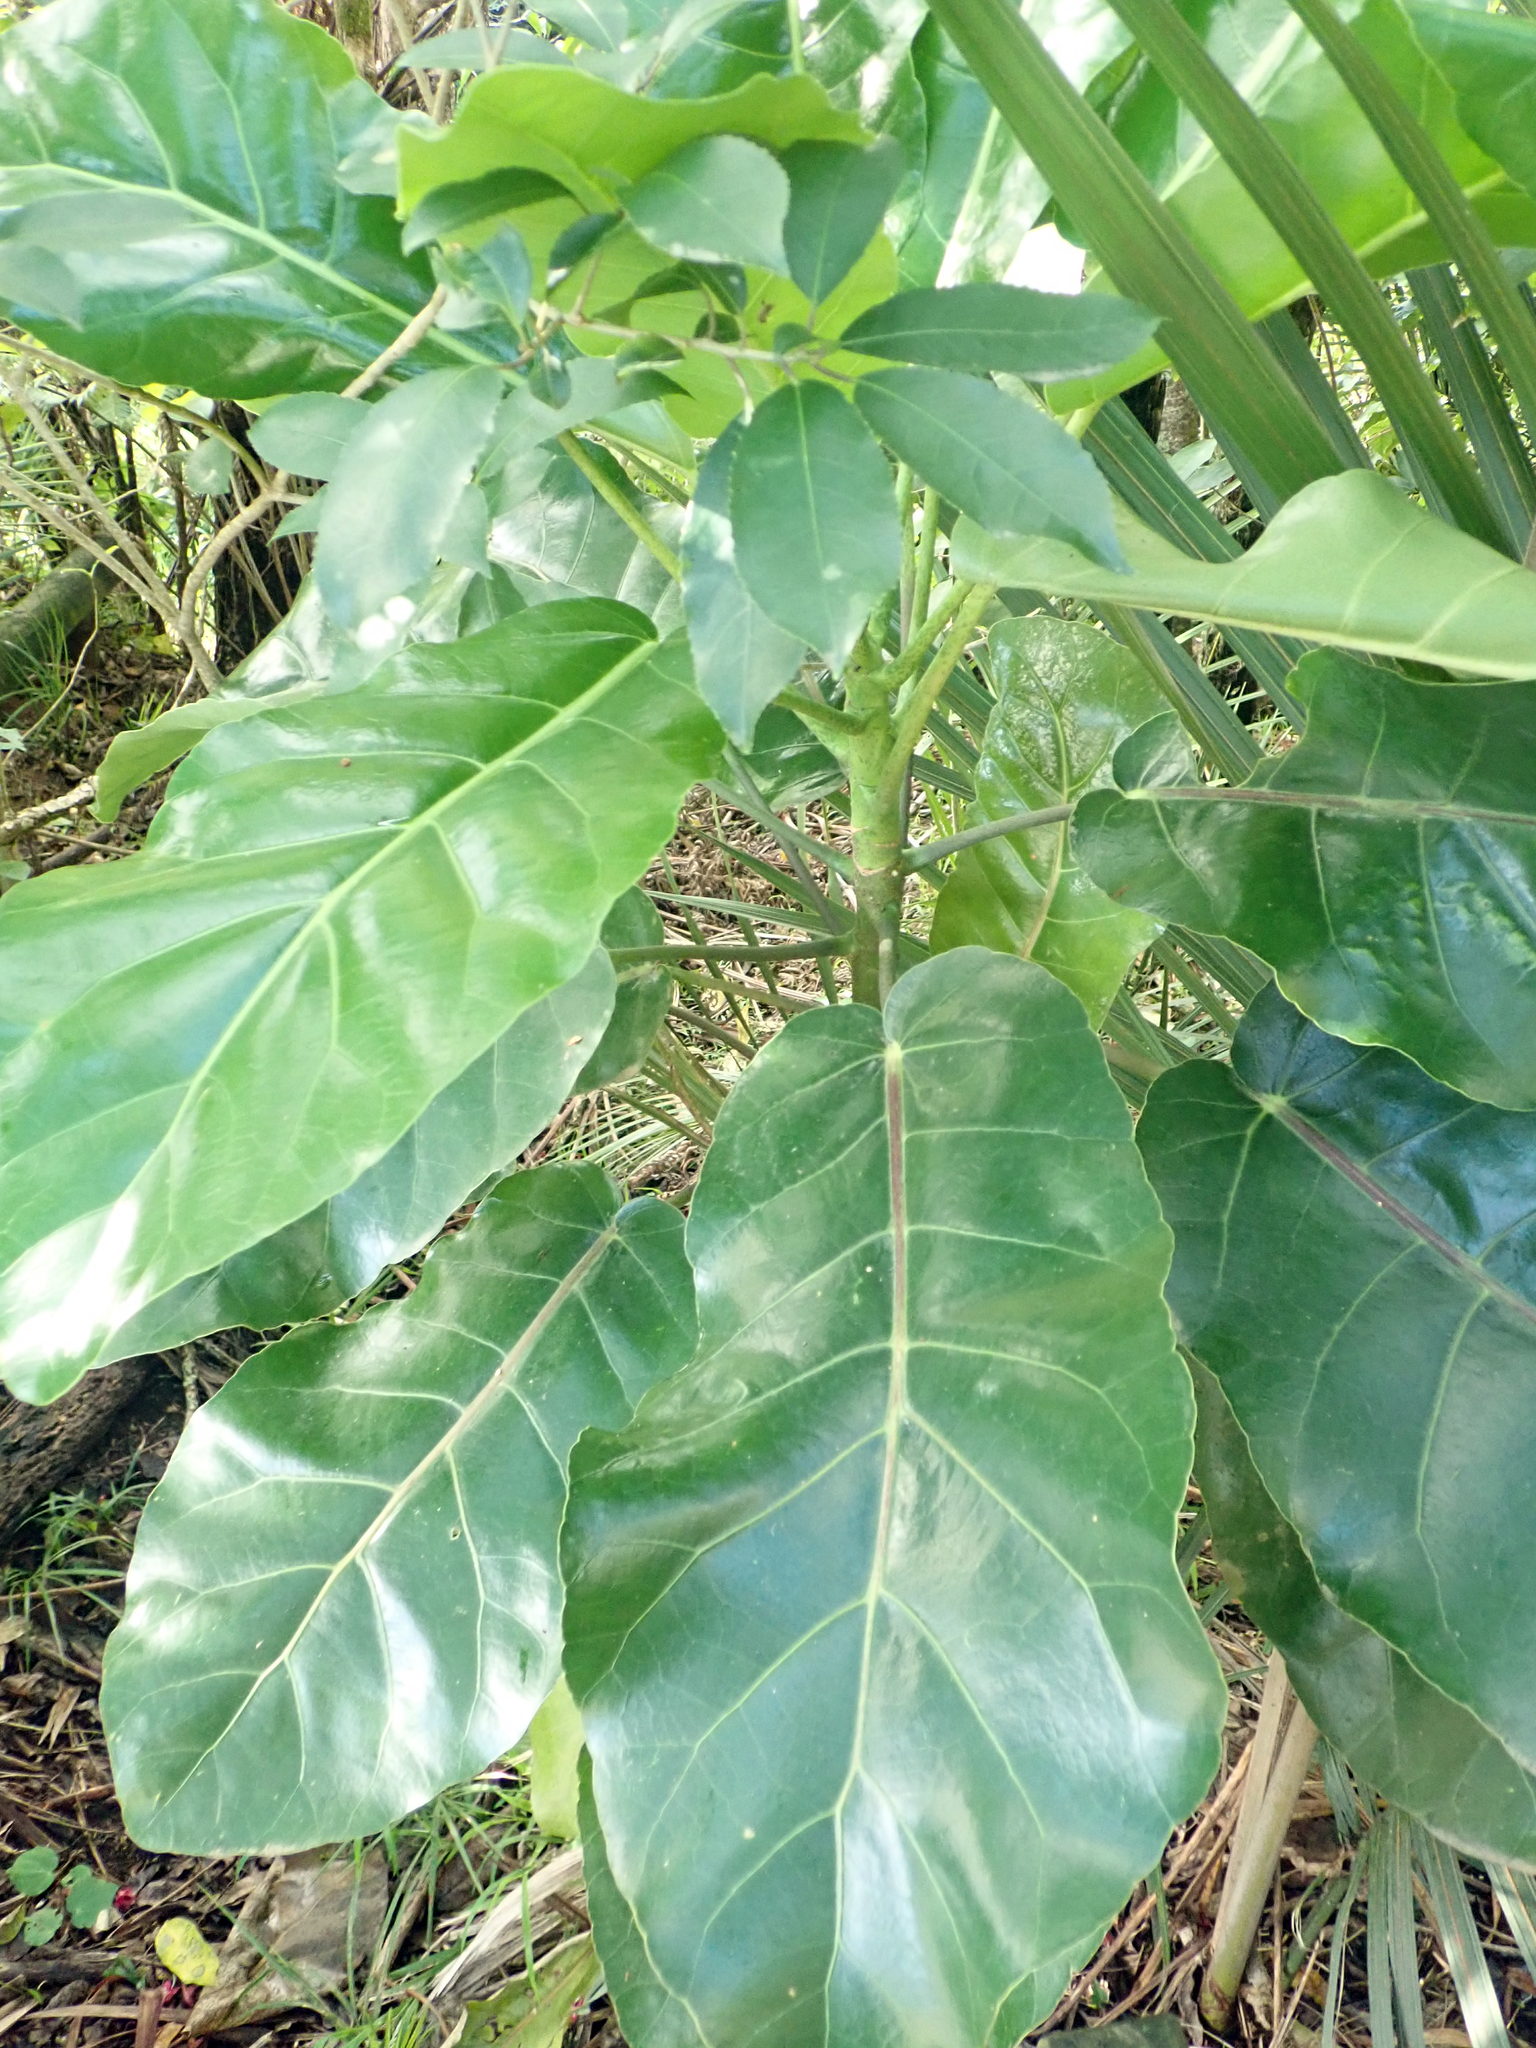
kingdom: Plantae
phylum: Tracheophyta
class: Magnoliopsida
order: Apiales
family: Araliaceae
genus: Meryta
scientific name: Meryta sinclairii
